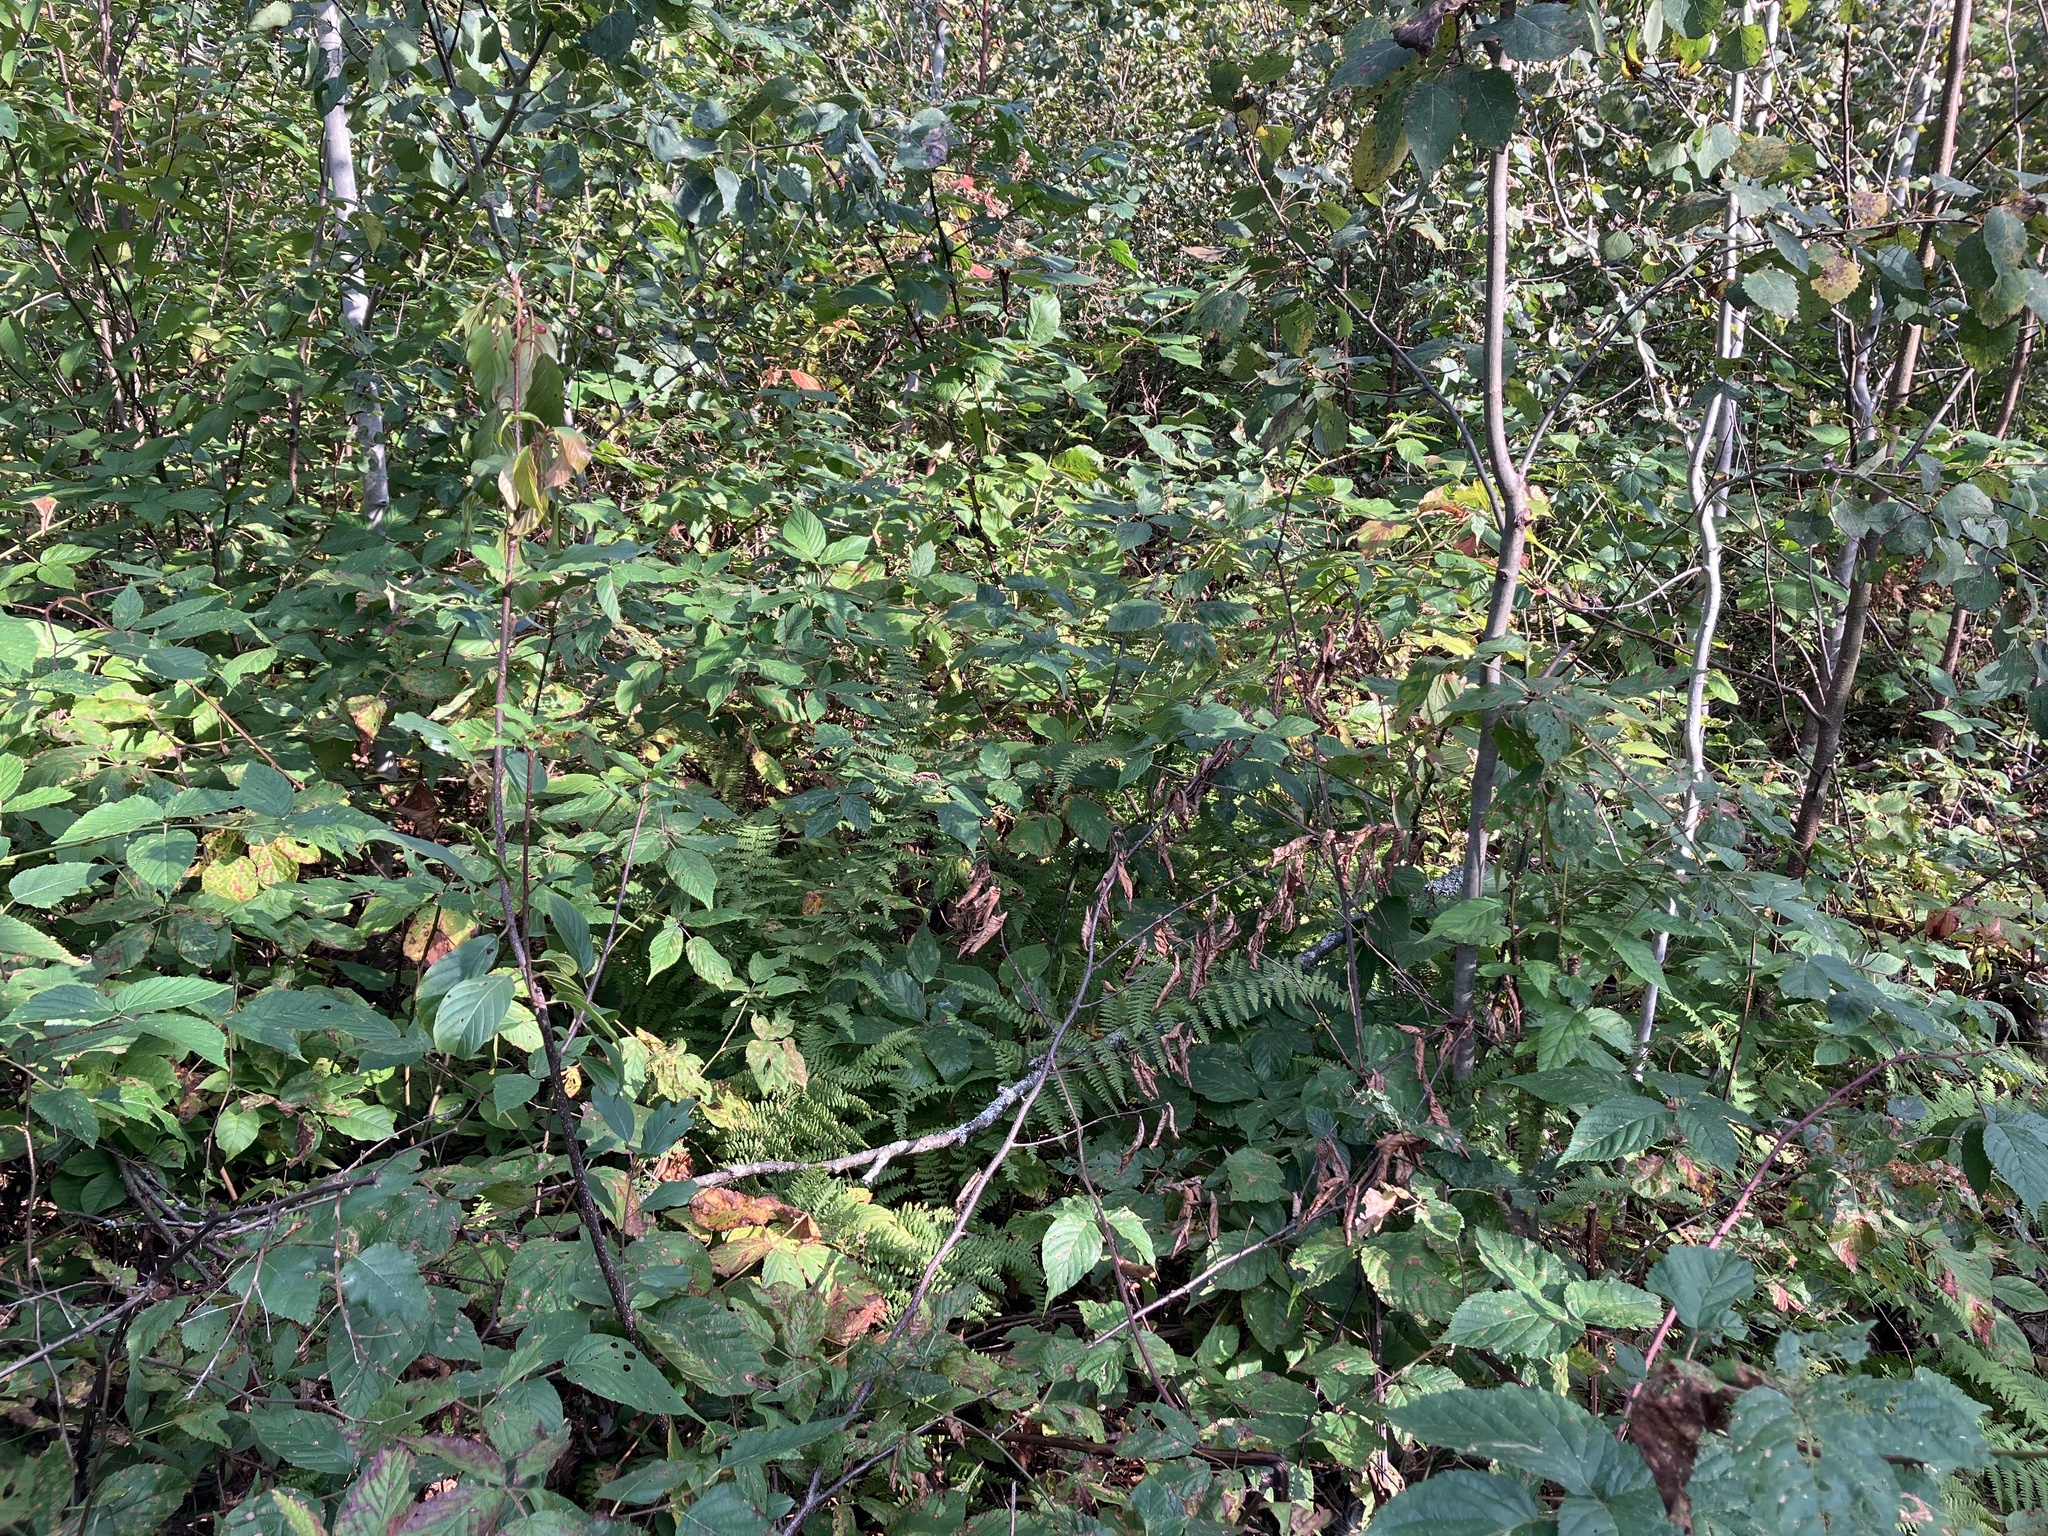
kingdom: Plantae
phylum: Tracheophyta
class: Magnoliopsida
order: Fagales
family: Fagaceae
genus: Quercus
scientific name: Quercus rubra
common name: Red oak
